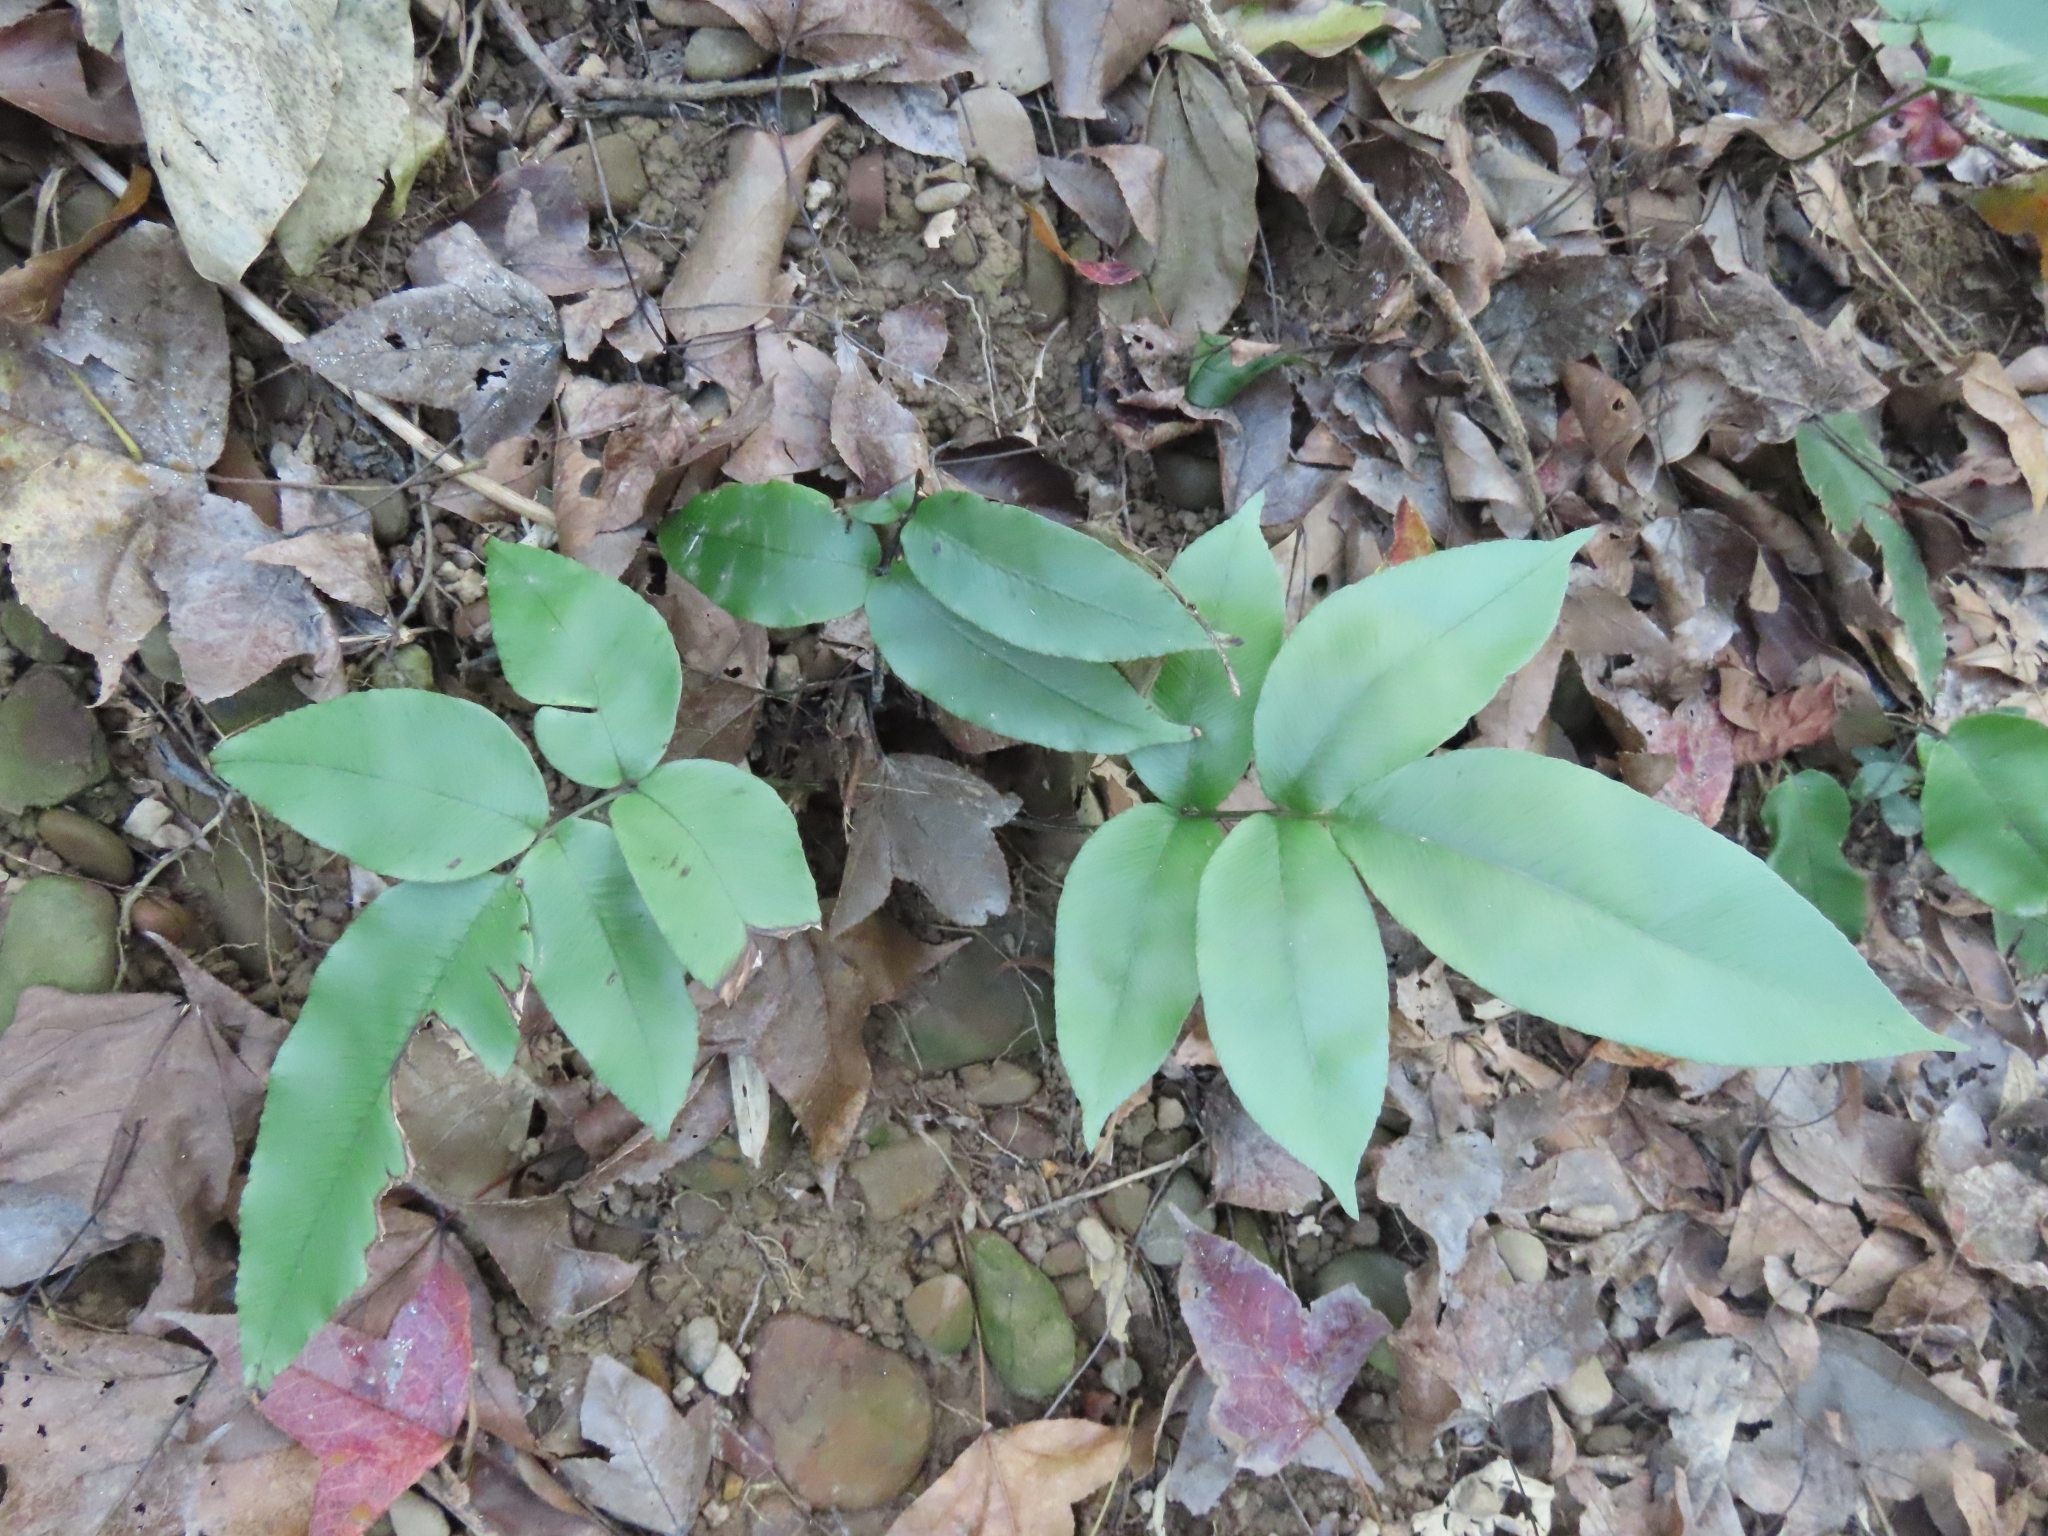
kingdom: Plantae
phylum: Tracheophyta
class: Polypodiopsida
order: Polypodiales
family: Athyriaceae
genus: Diplazium
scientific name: Diplazium lineolatum
